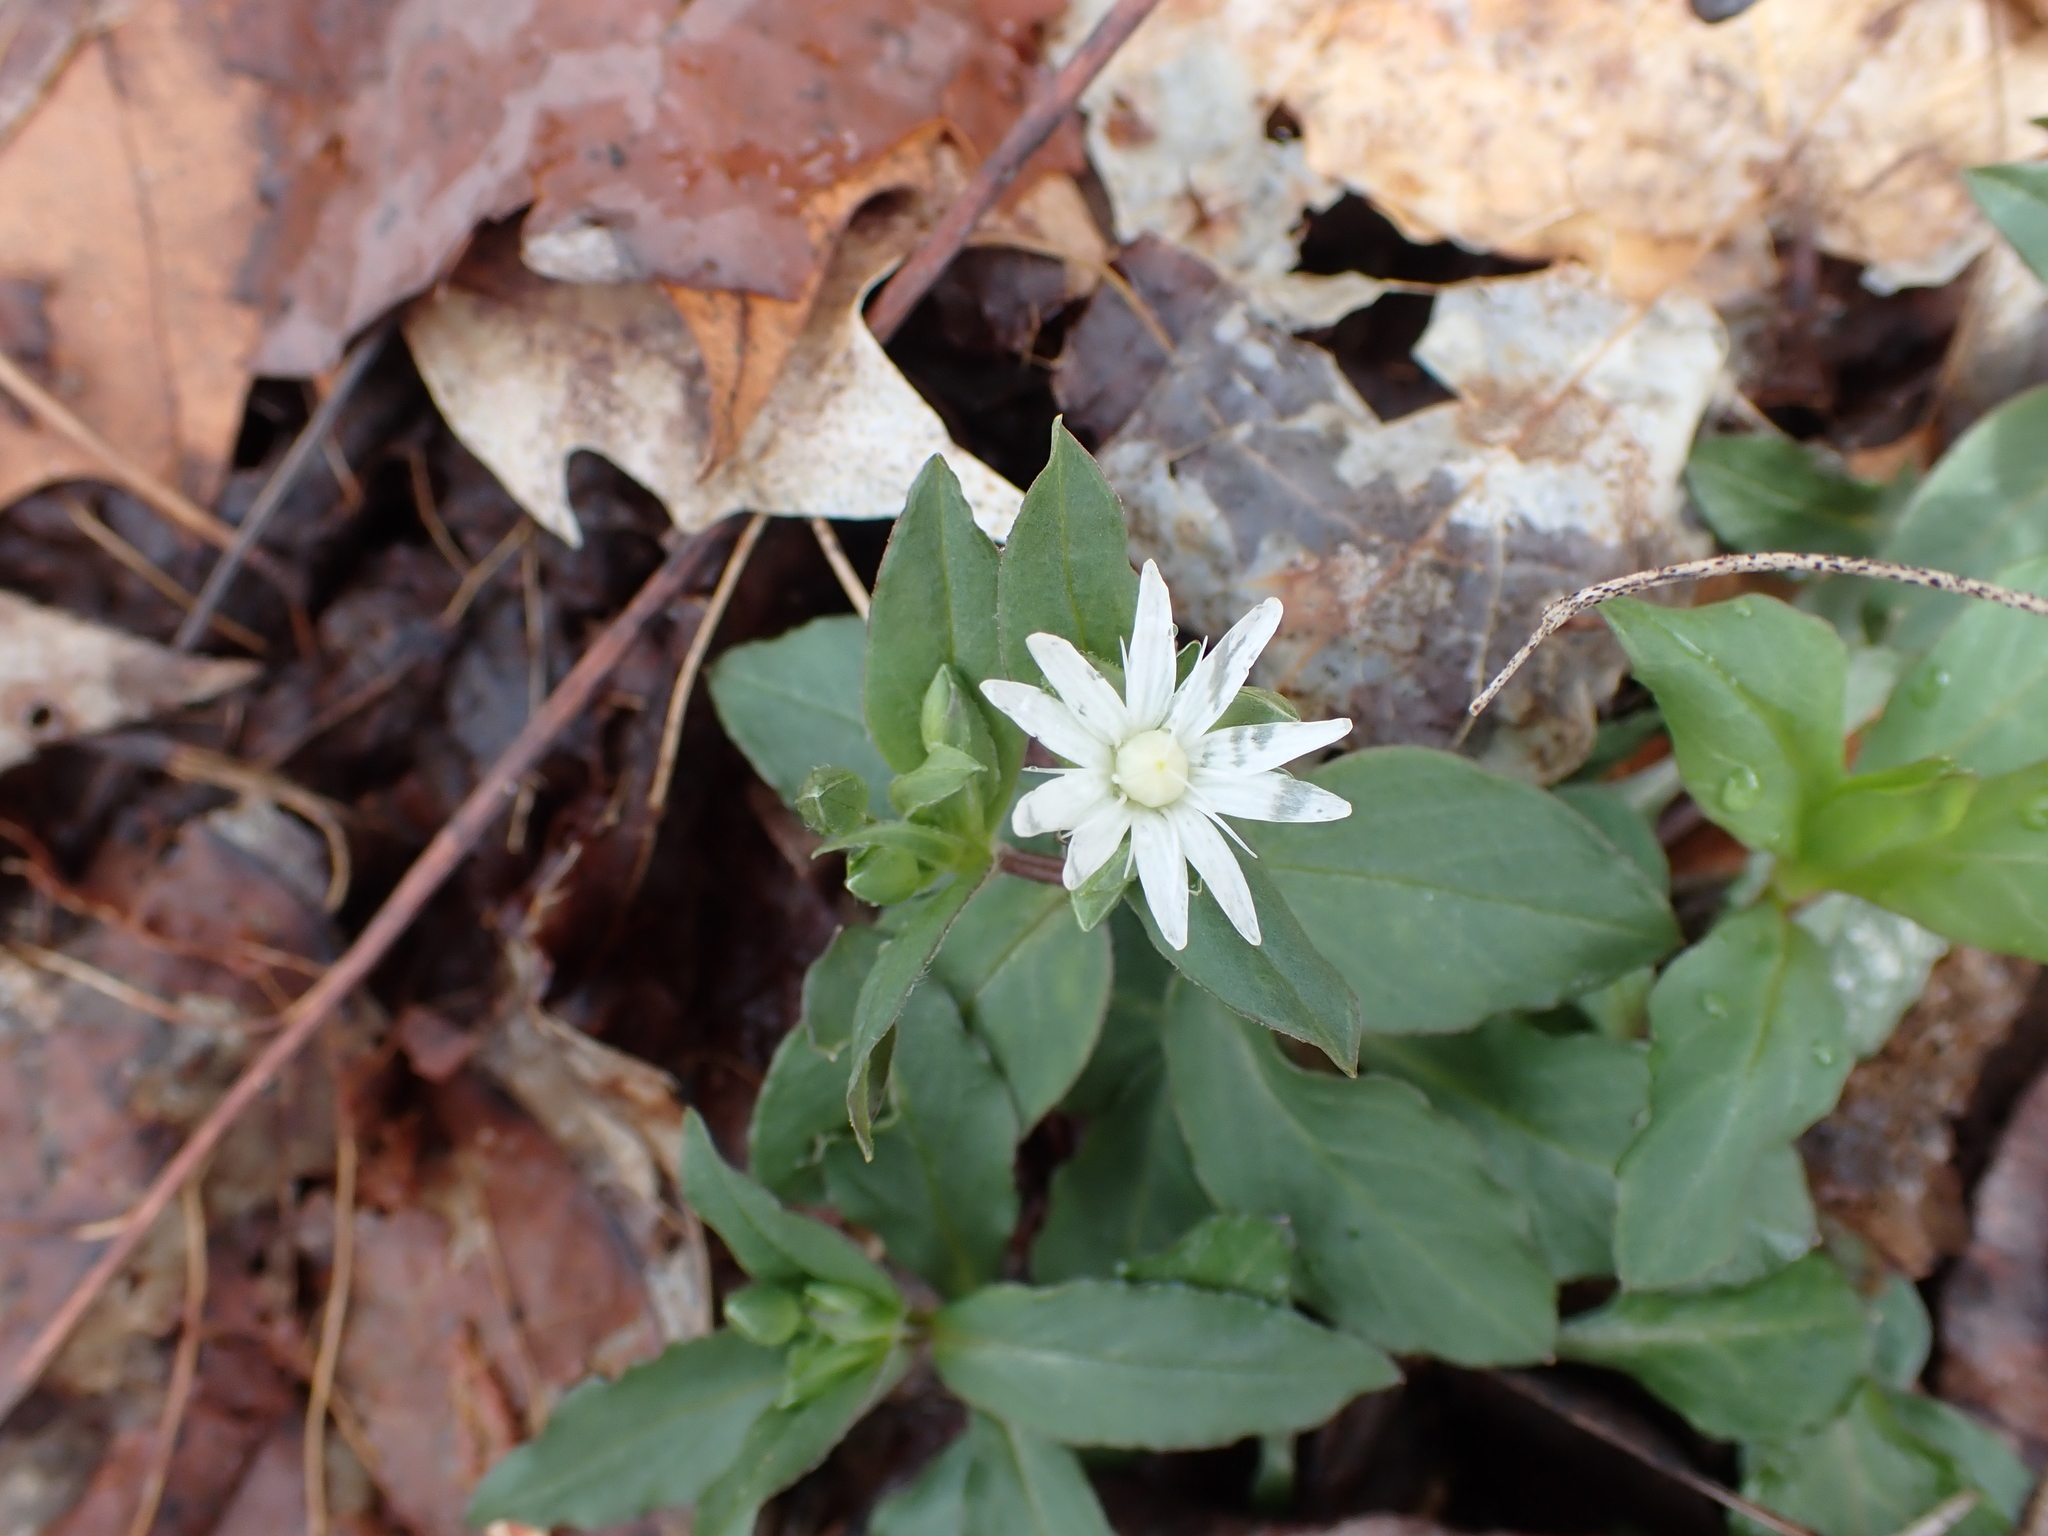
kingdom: Plantae
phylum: Tracheophyta
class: Magnoliopsida
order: Caryophyllales
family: Caryophyllaceae
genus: Stellaria
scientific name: Stellaria pubera
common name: Star chickweed
